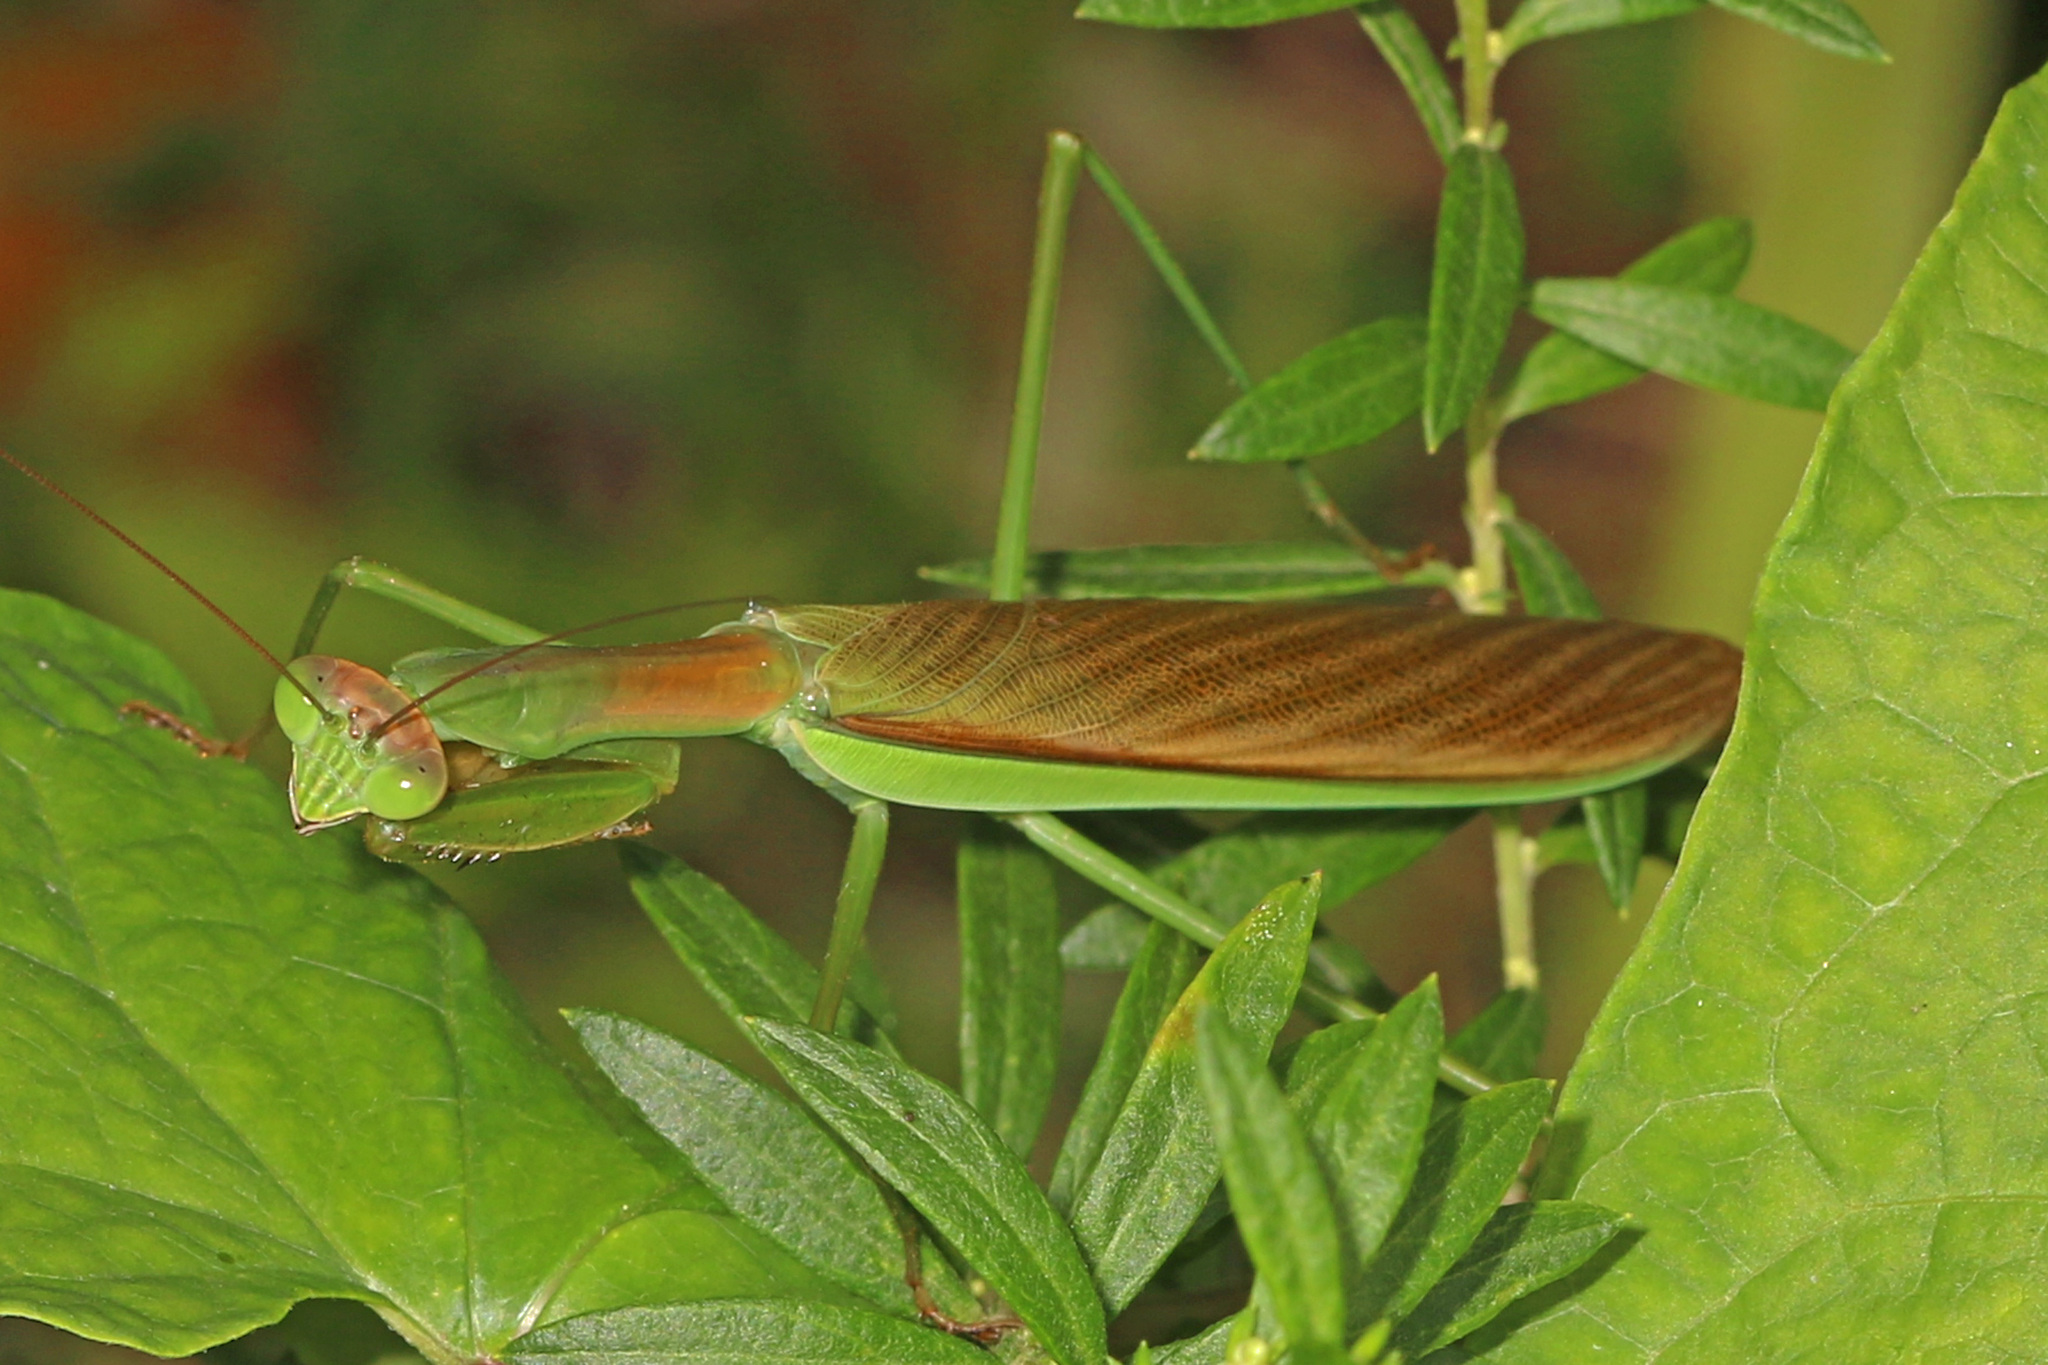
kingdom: Animalia
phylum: Arthropoda
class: Insecta
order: Mantodea
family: Mantidae
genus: Tenodera
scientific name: Tenodera sinensis
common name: Chinese mantis
